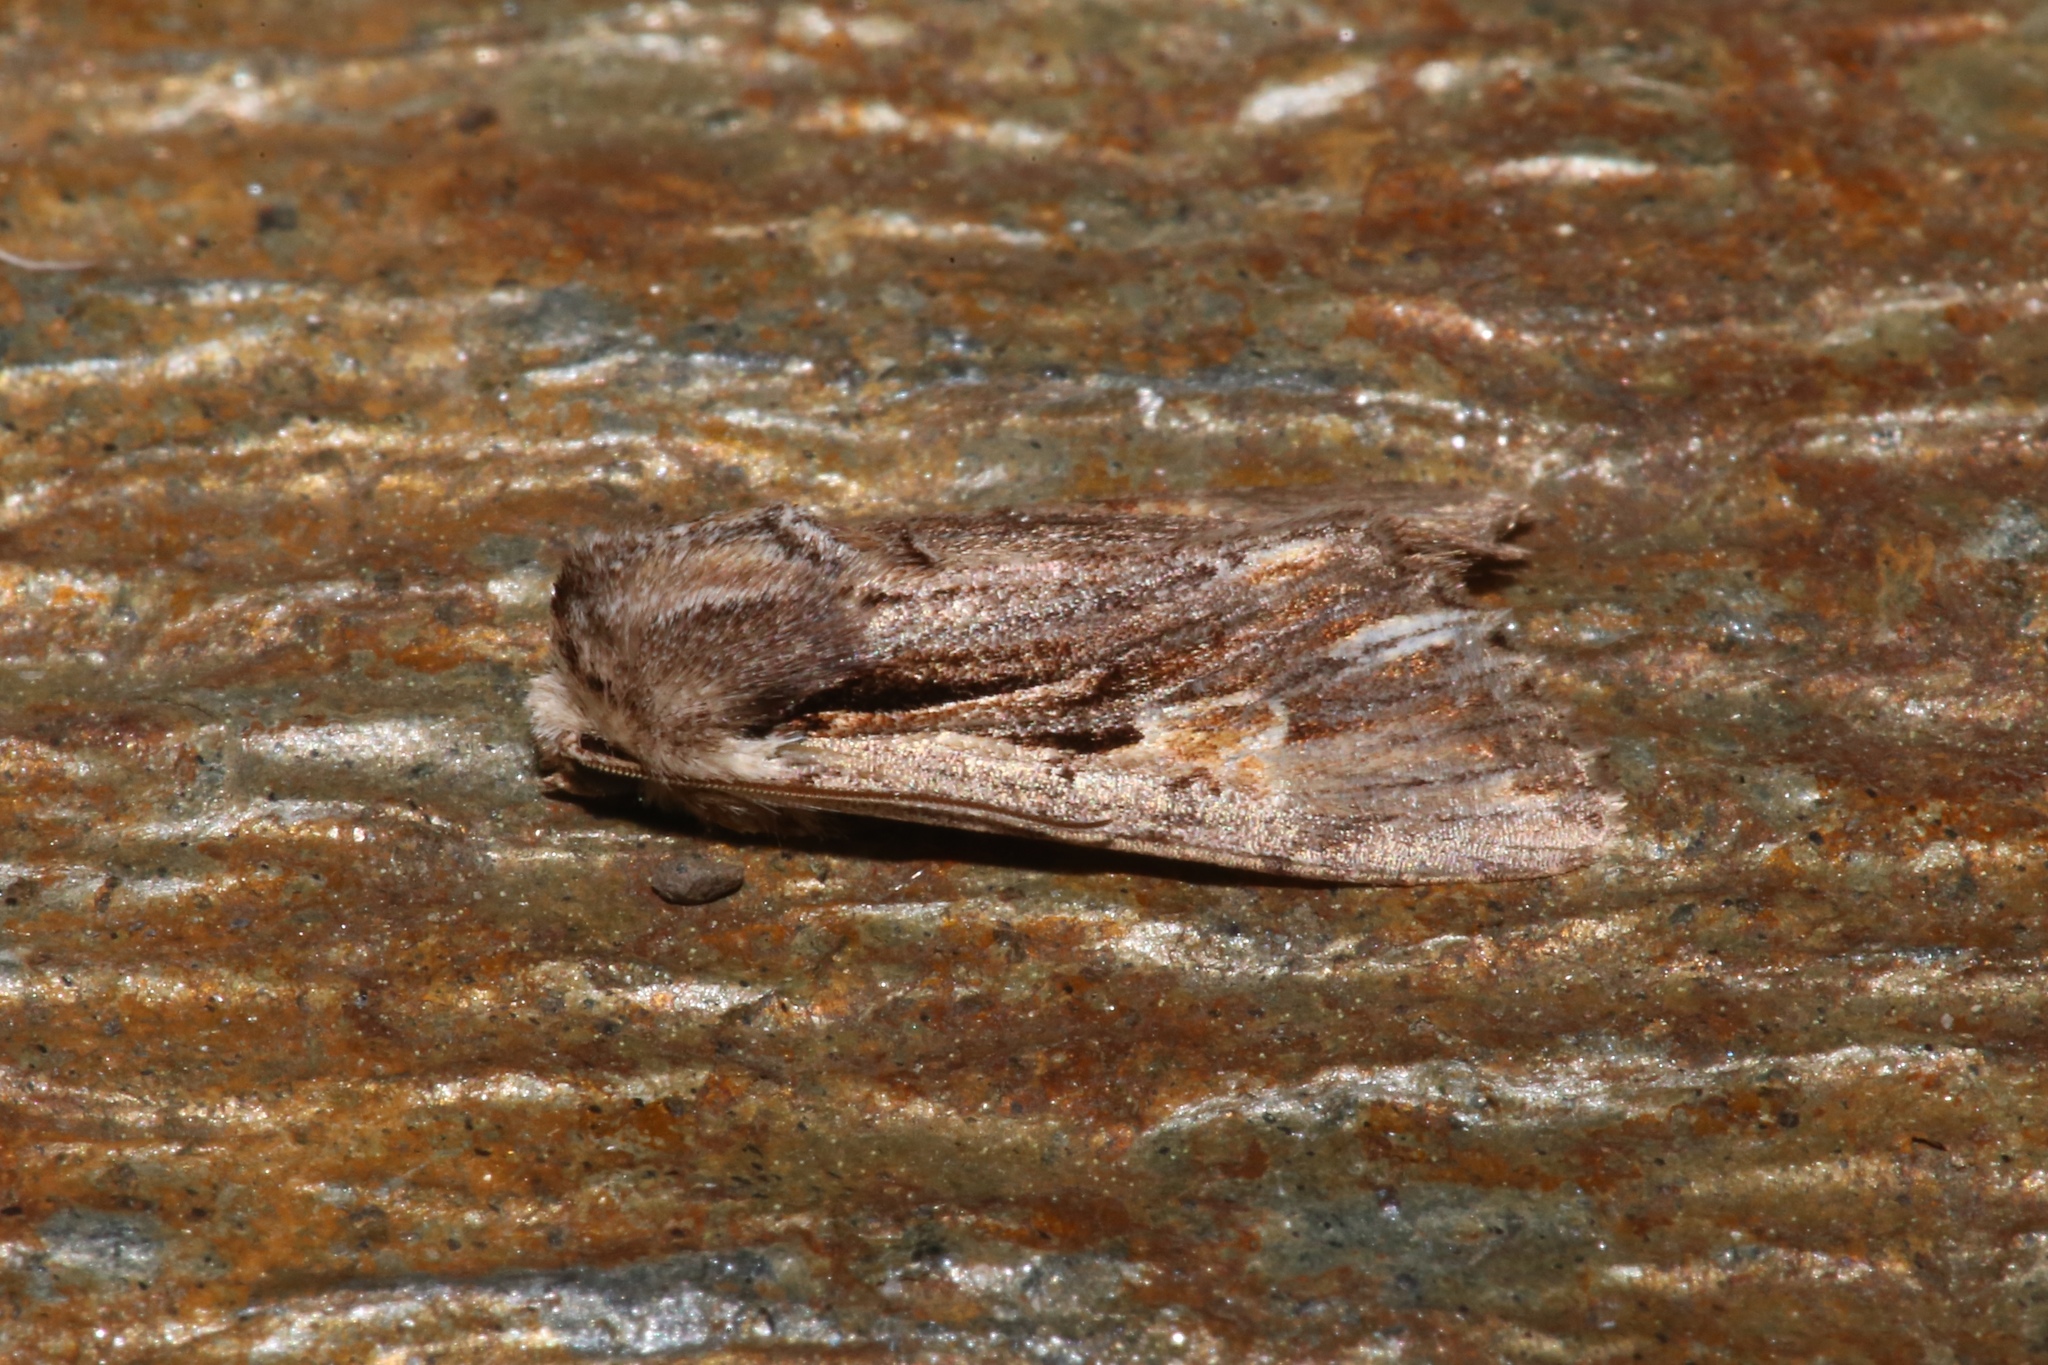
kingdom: Animalia
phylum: Arthropoda
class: Insecta
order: Lepidoptera
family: Noctuidae
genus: Achatia
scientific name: Achatia evicta
